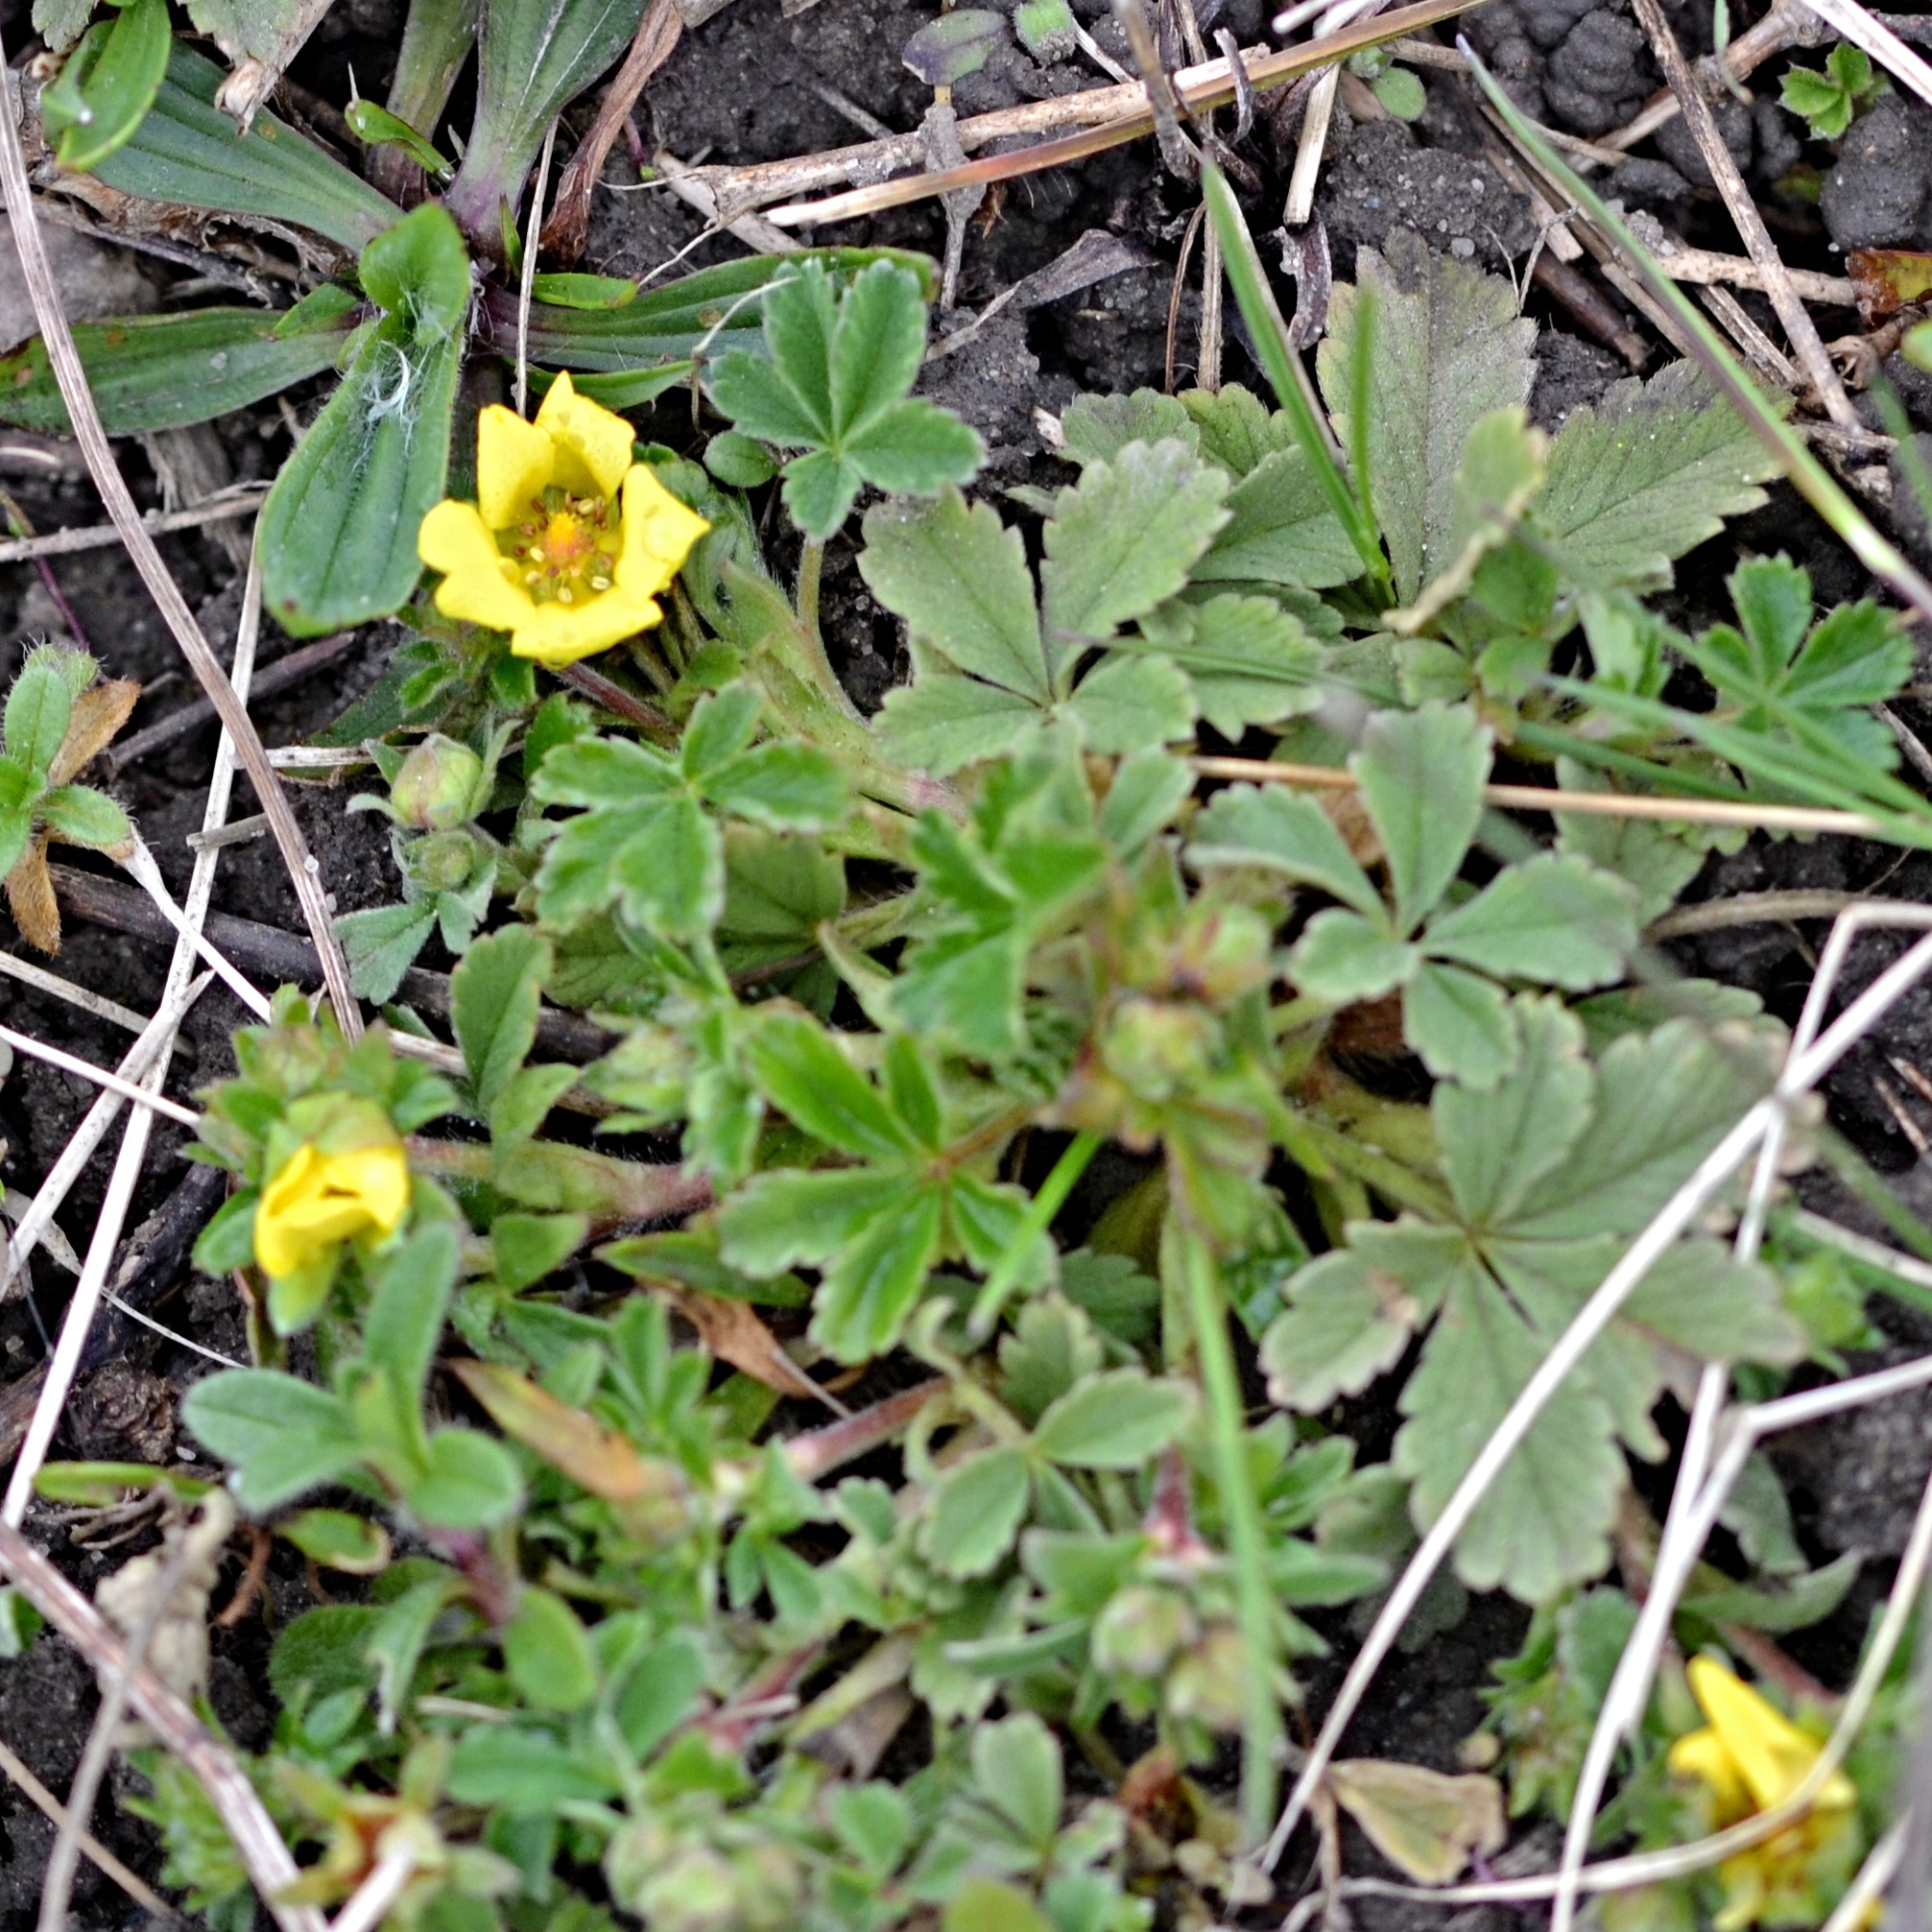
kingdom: Plantae
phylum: Tracheophyta
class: Magnoliopsida
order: Rosales
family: Rosaceae
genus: Potentilla
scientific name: Potentilla incana
